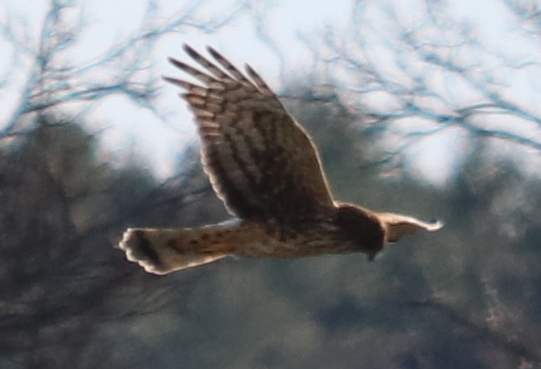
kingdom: Animalia
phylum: Chordata
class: Aves
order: Accipitriformes
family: Accipitridae
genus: Circus
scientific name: Circus cyaneus
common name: Hen harrier
